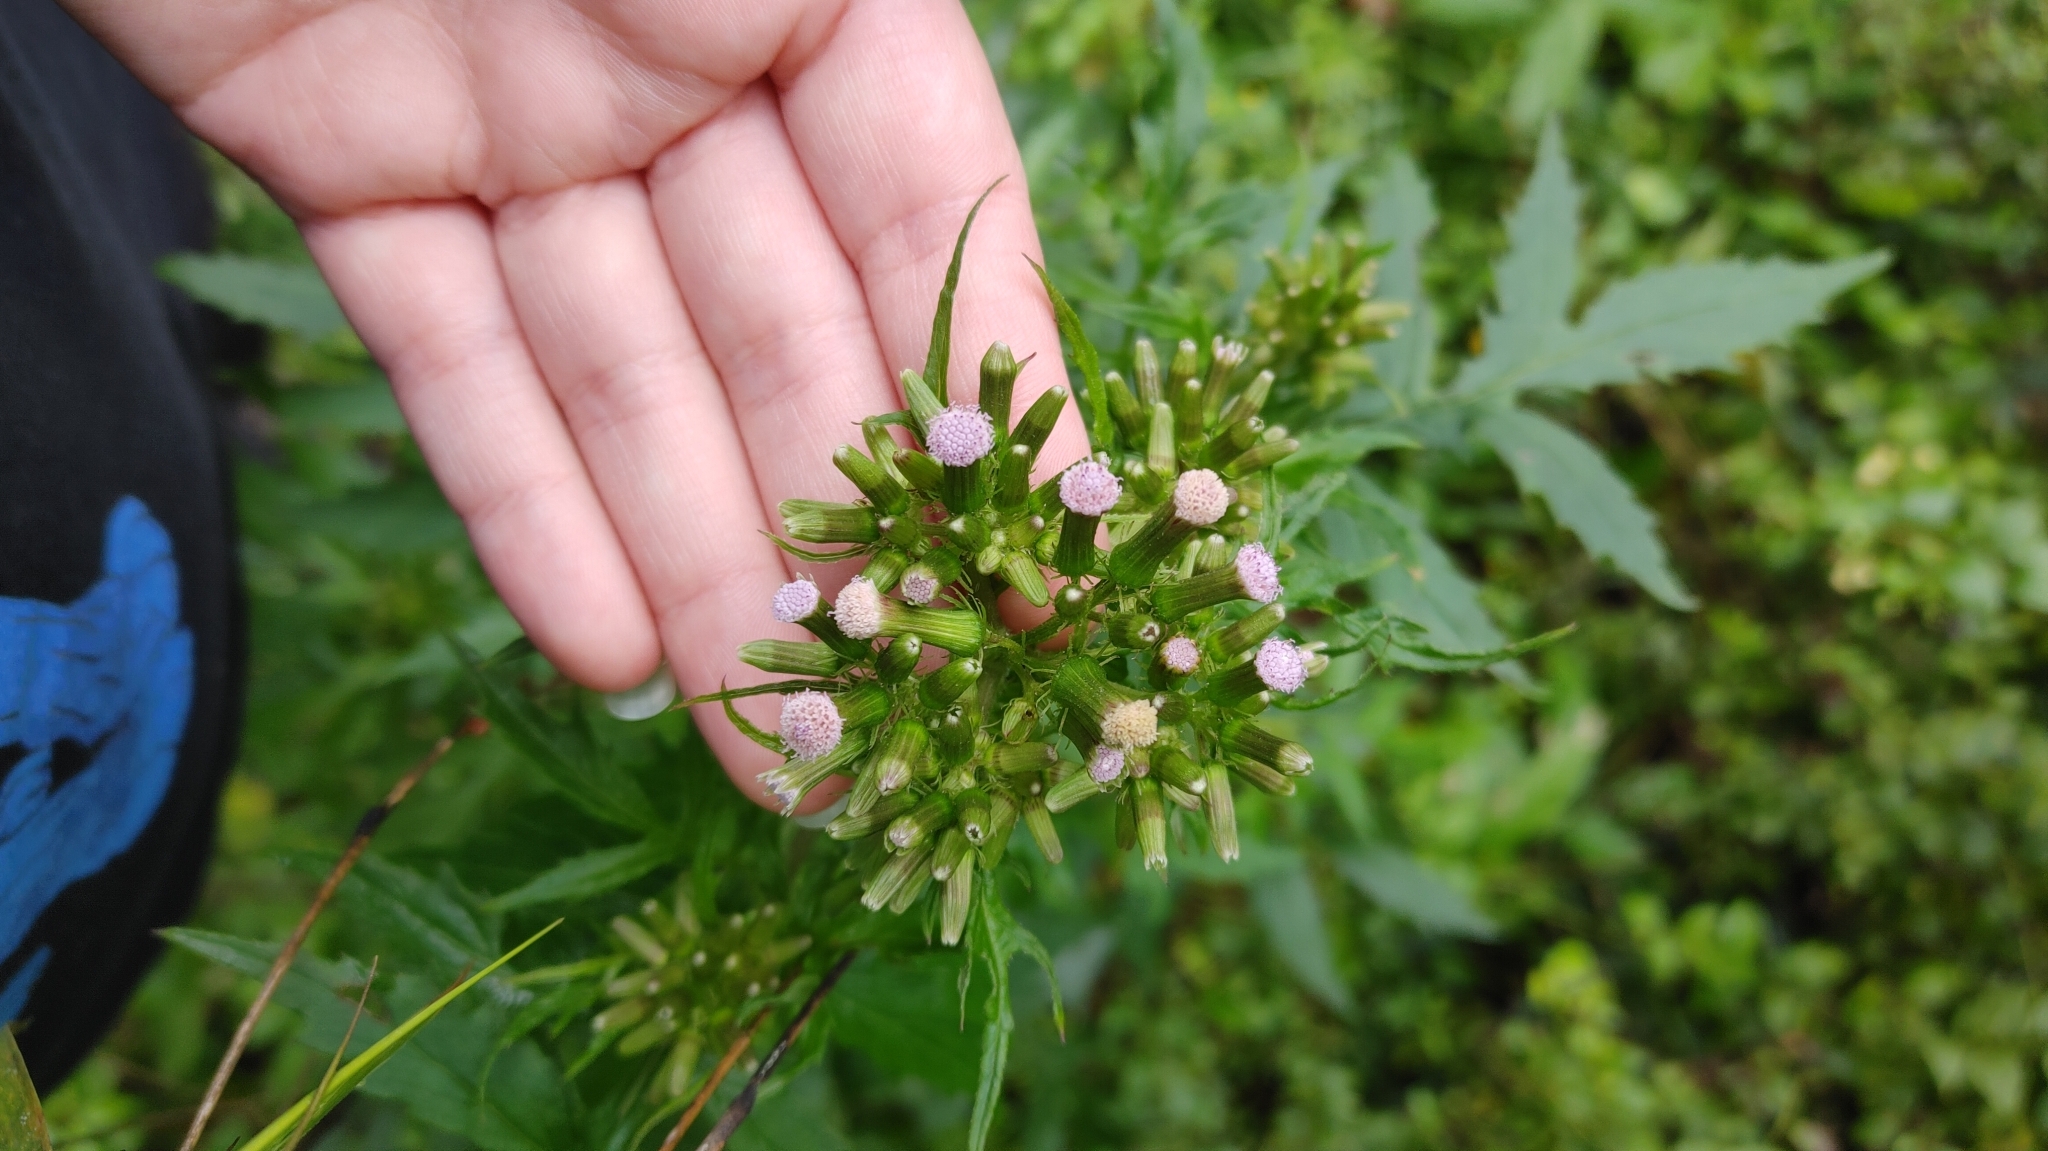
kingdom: Plantae
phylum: Tracheophyta
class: Magnoliopsida
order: Asterales
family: Asteraceae
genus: Erechtites
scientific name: Erechtites valerianifolius
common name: Tropical burnweed
